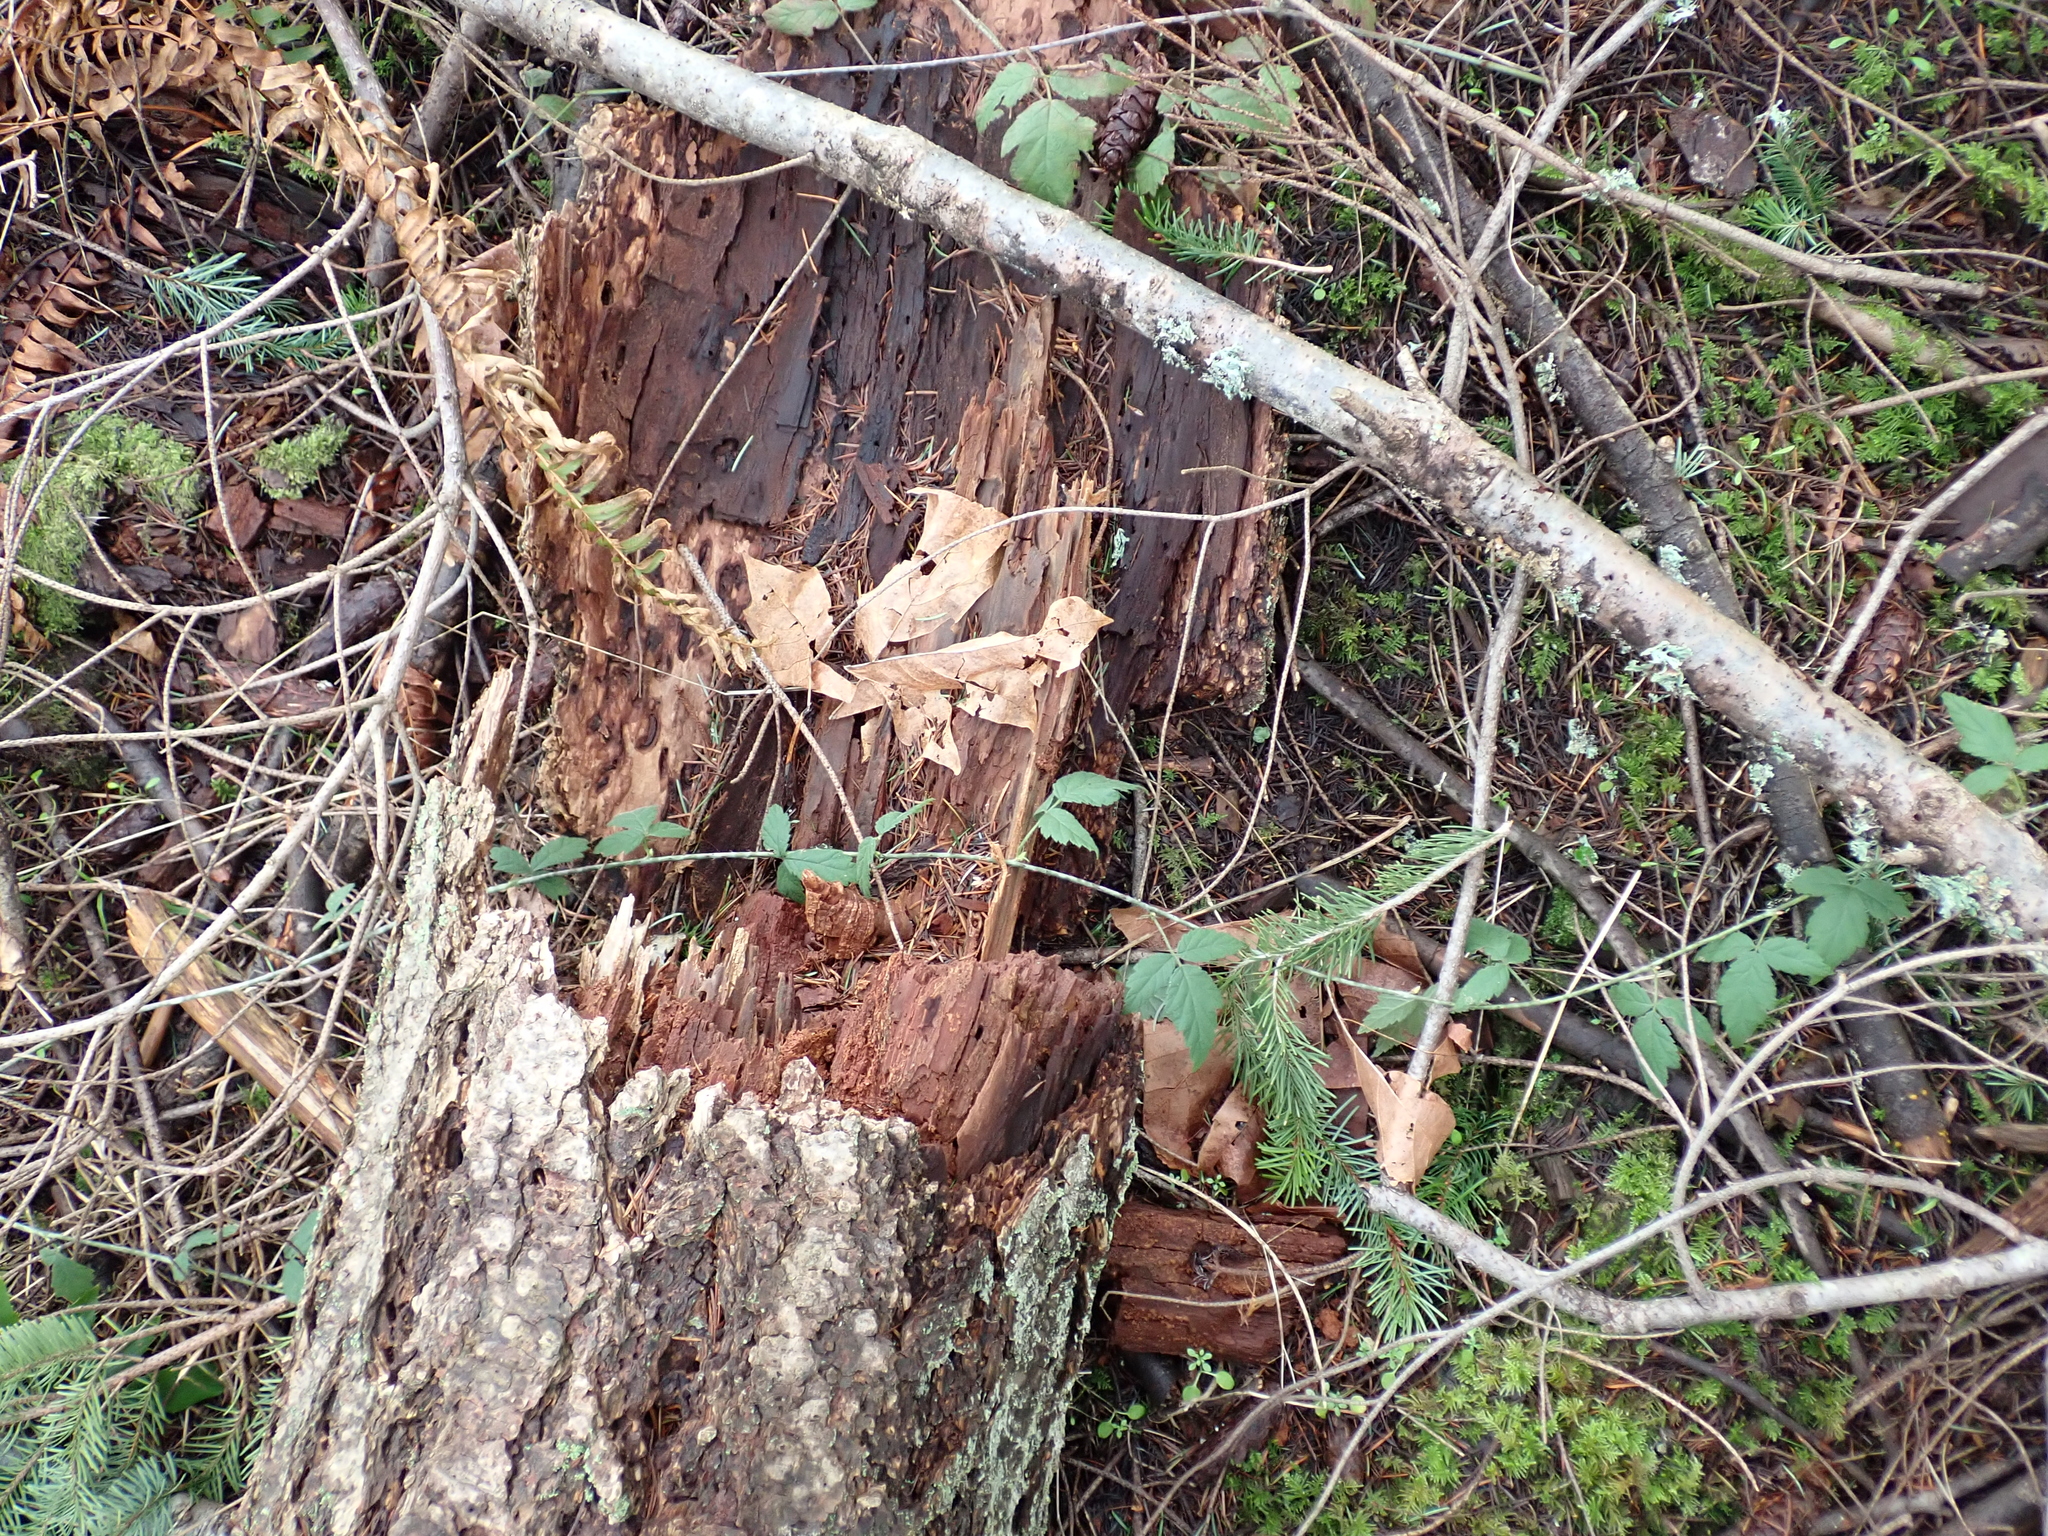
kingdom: Plantae
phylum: Tracheophyta
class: Magnoliopsida
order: Rosales
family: Rosaceae
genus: Rubus
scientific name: Rubus ursinus
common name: Pacific blackberry
